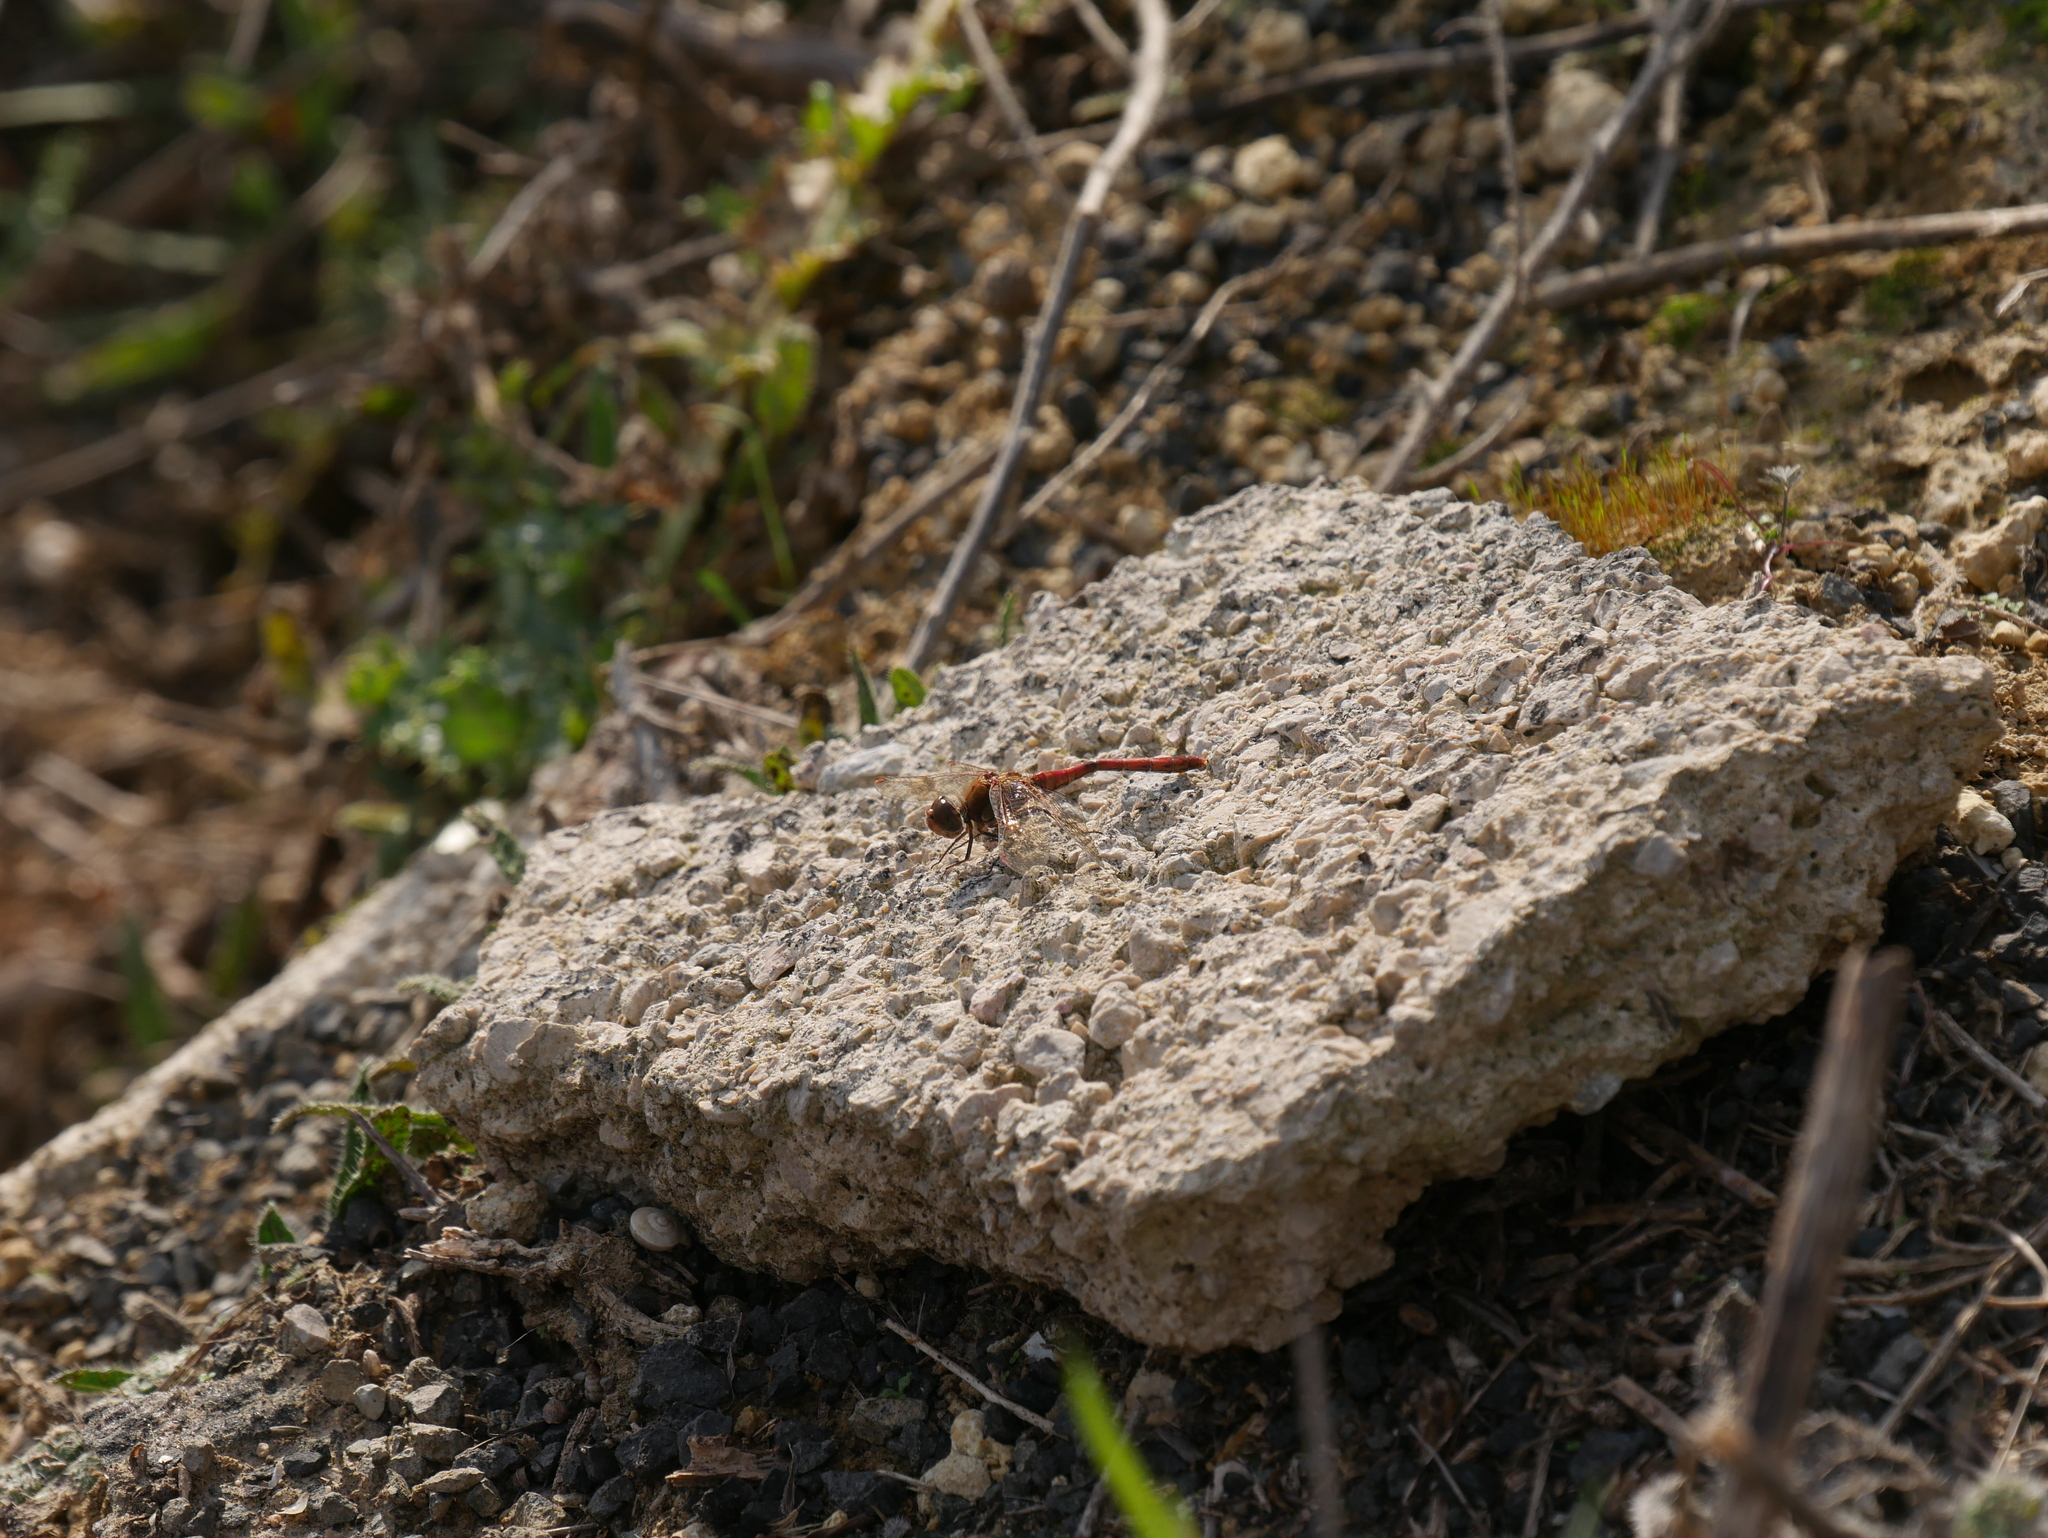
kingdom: Animalia
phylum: Arthropoda
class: Insecta
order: Odonata
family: Libellulidae
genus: Sympetrum
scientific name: Sympetrum striolatum
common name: Common darter
